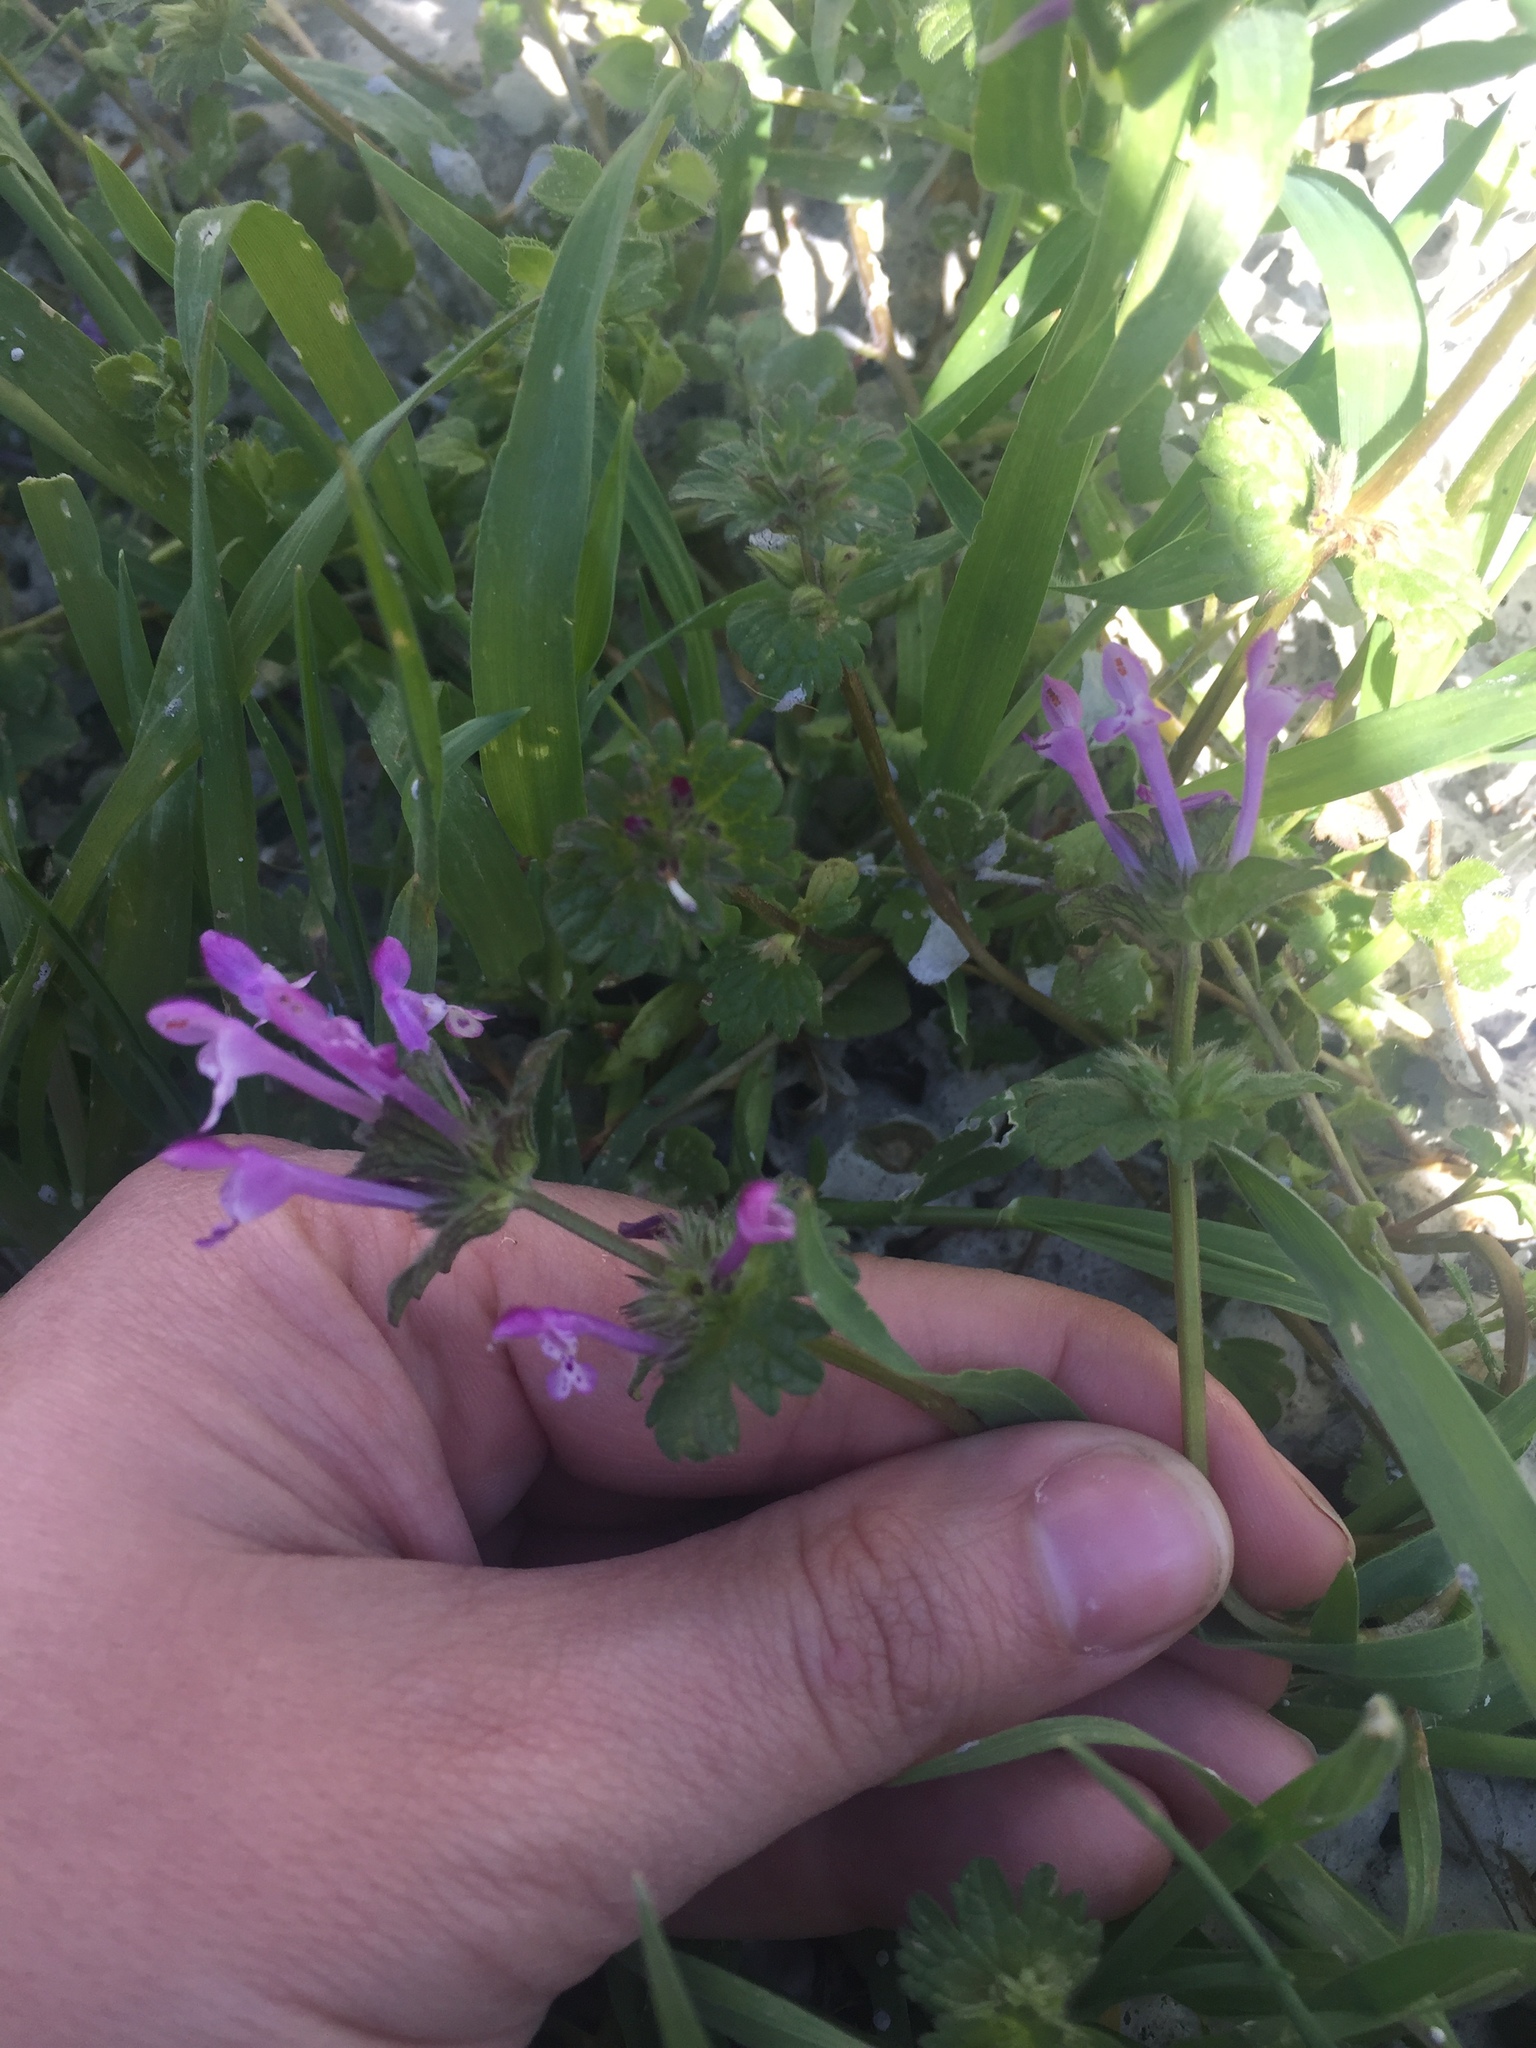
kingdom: Plantae
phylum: Tracheophyta
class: Magnoliopsida
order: Lamiales
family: Lamiaceae
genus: Lamium
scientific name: Lamium amplexicaule
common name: Henbit dead-nettle
